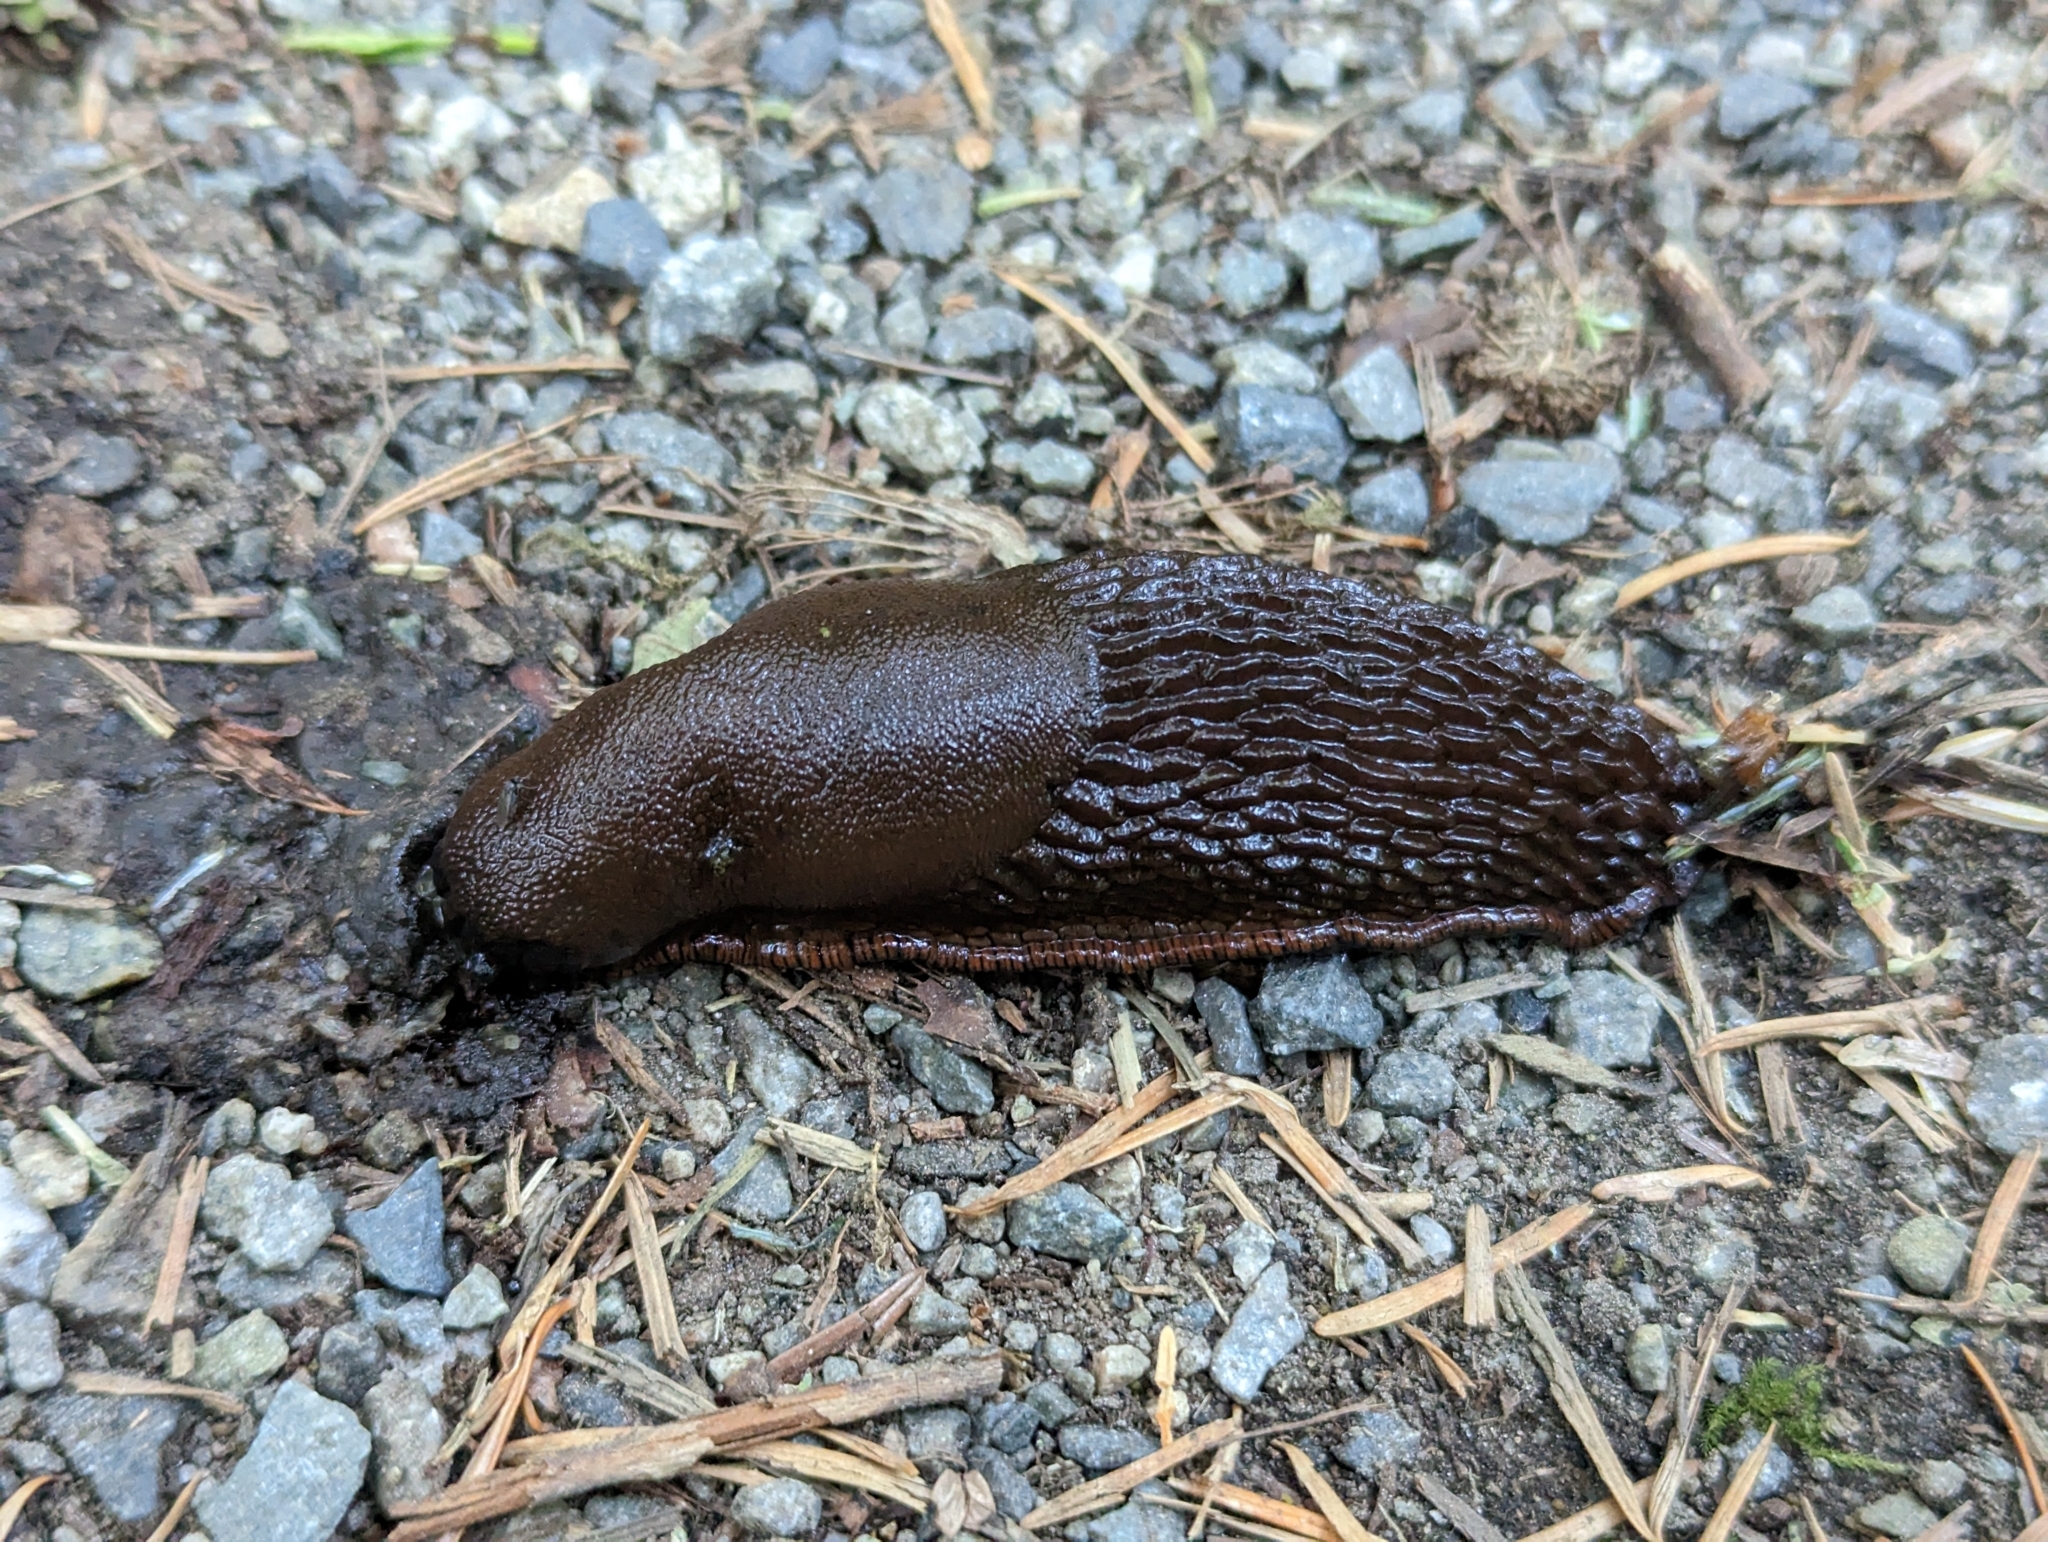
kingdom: Animalia
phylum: Mollusca
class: Gastropoda
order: Stylommatophora
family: Arionidae
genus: Arion
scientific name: Arion
